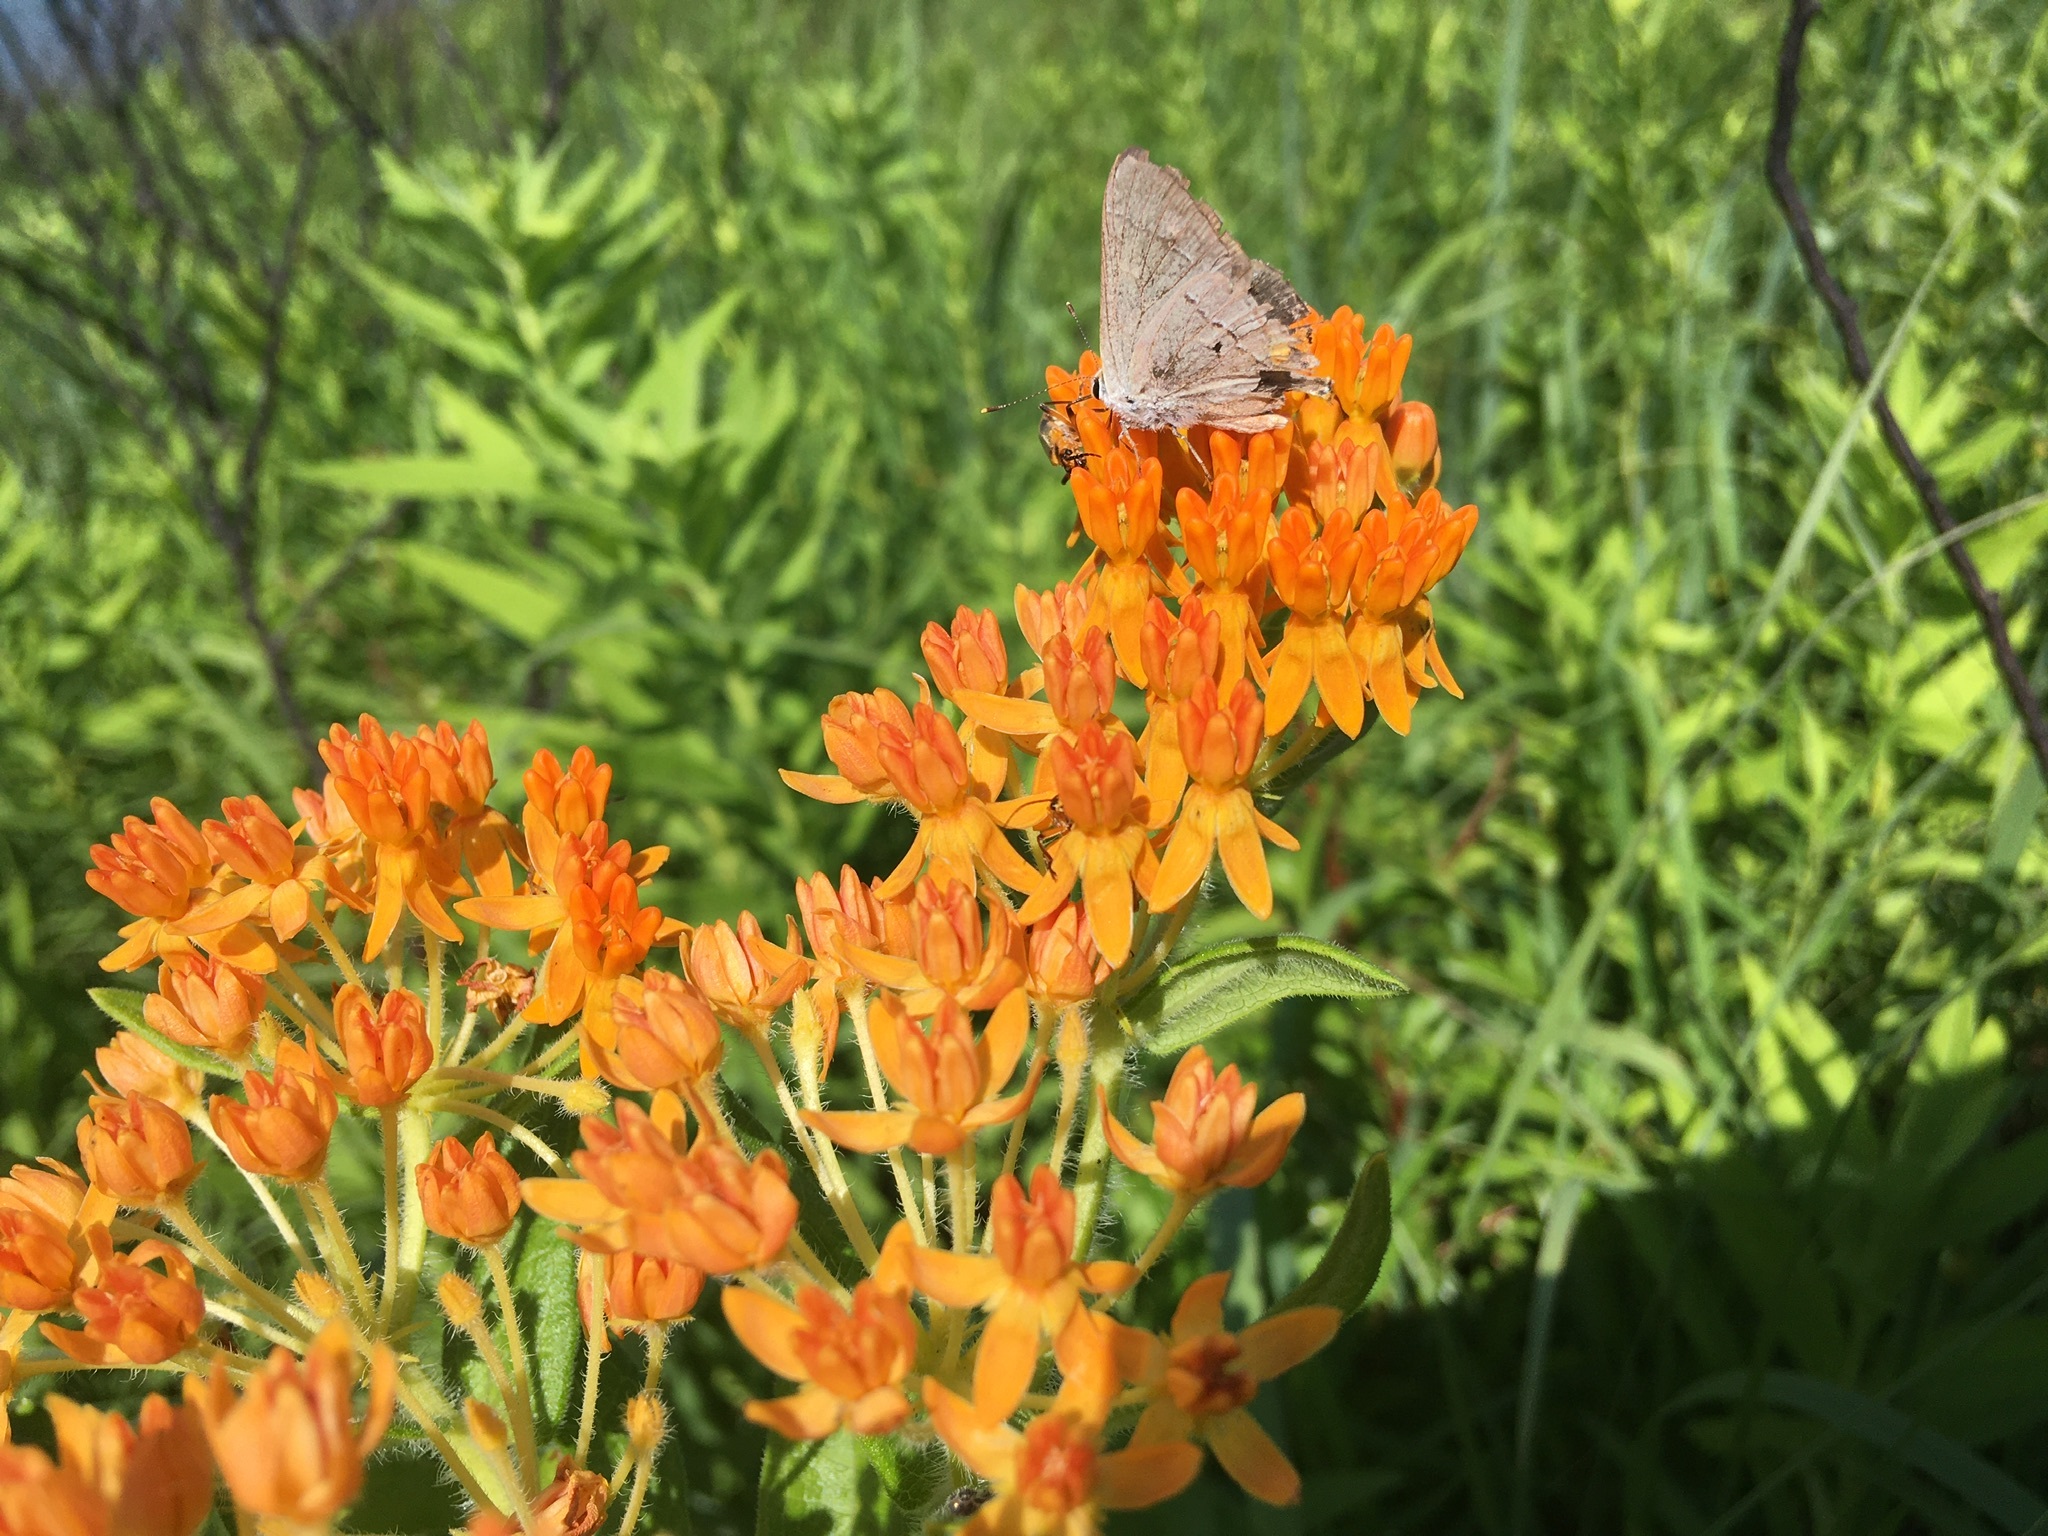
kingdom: Animalia
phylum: Arthropoda
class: Insecta
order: Lepidoptera
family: Lycaenidae
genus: Strymon
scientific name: Strymon melinus
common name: Gray hairstreak
